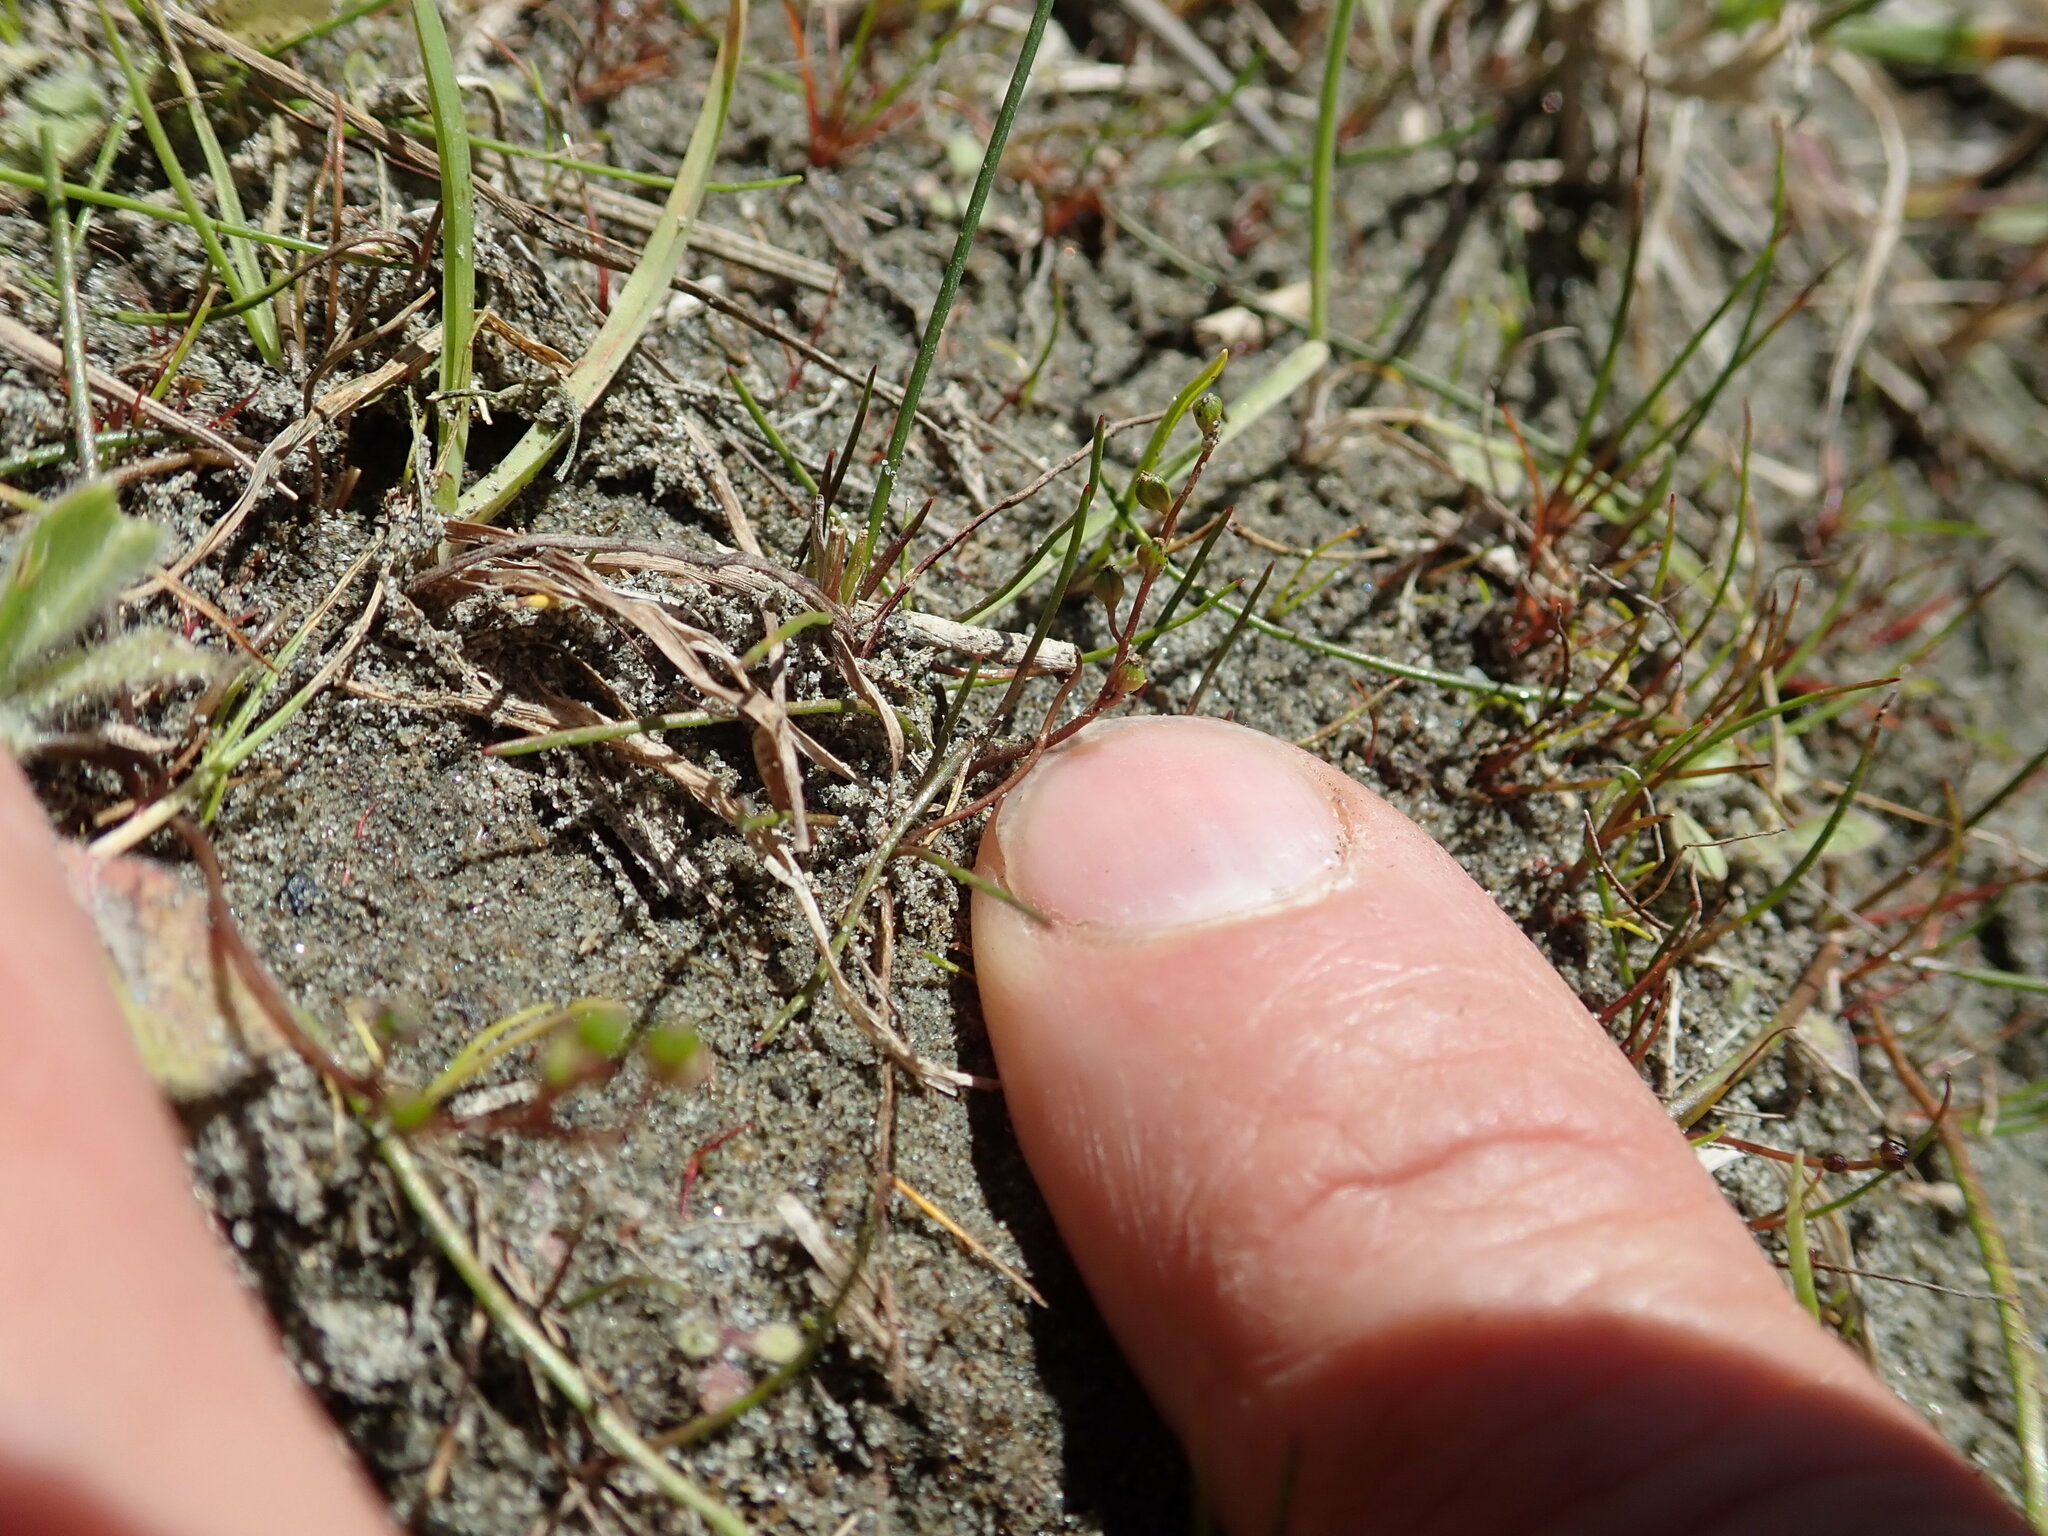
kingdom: Plantae
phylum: Tracheophyta
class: Liliopsida
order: Alismatales
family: Juncaginaceae
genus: Triglochin
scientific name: Triglochin striata
